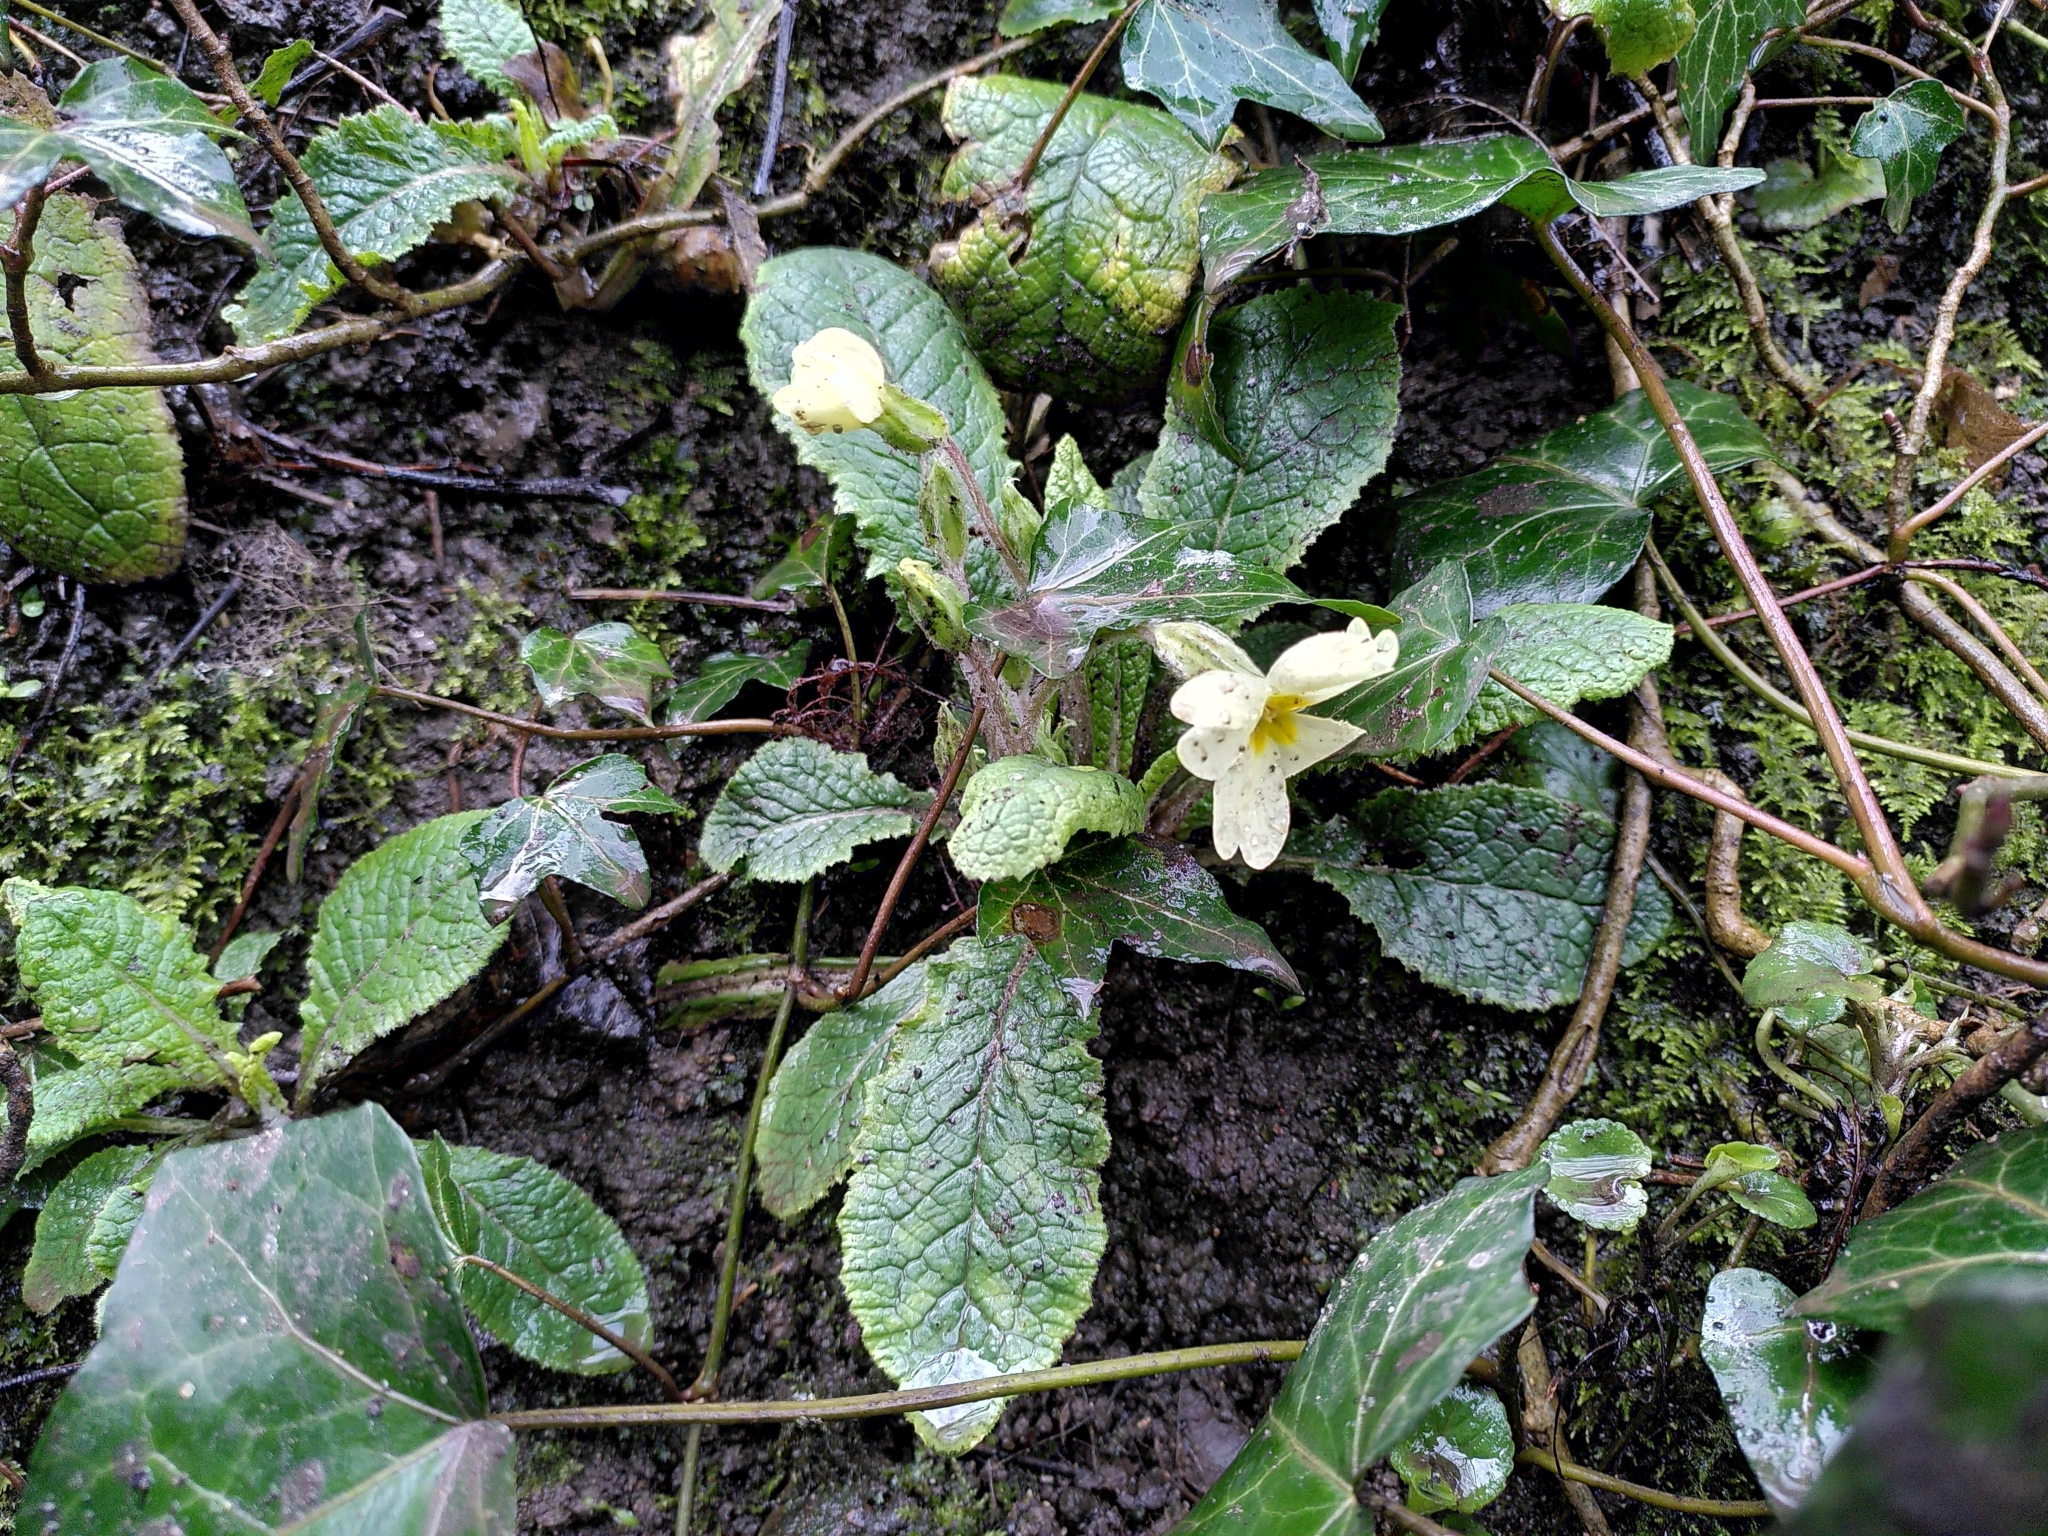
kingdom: Plantae
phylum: Tracheophyta
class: Magnoliopsida
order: Ericales
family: Primulaceae
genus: Primula
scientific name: Primula vulgaris
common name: Primrose
